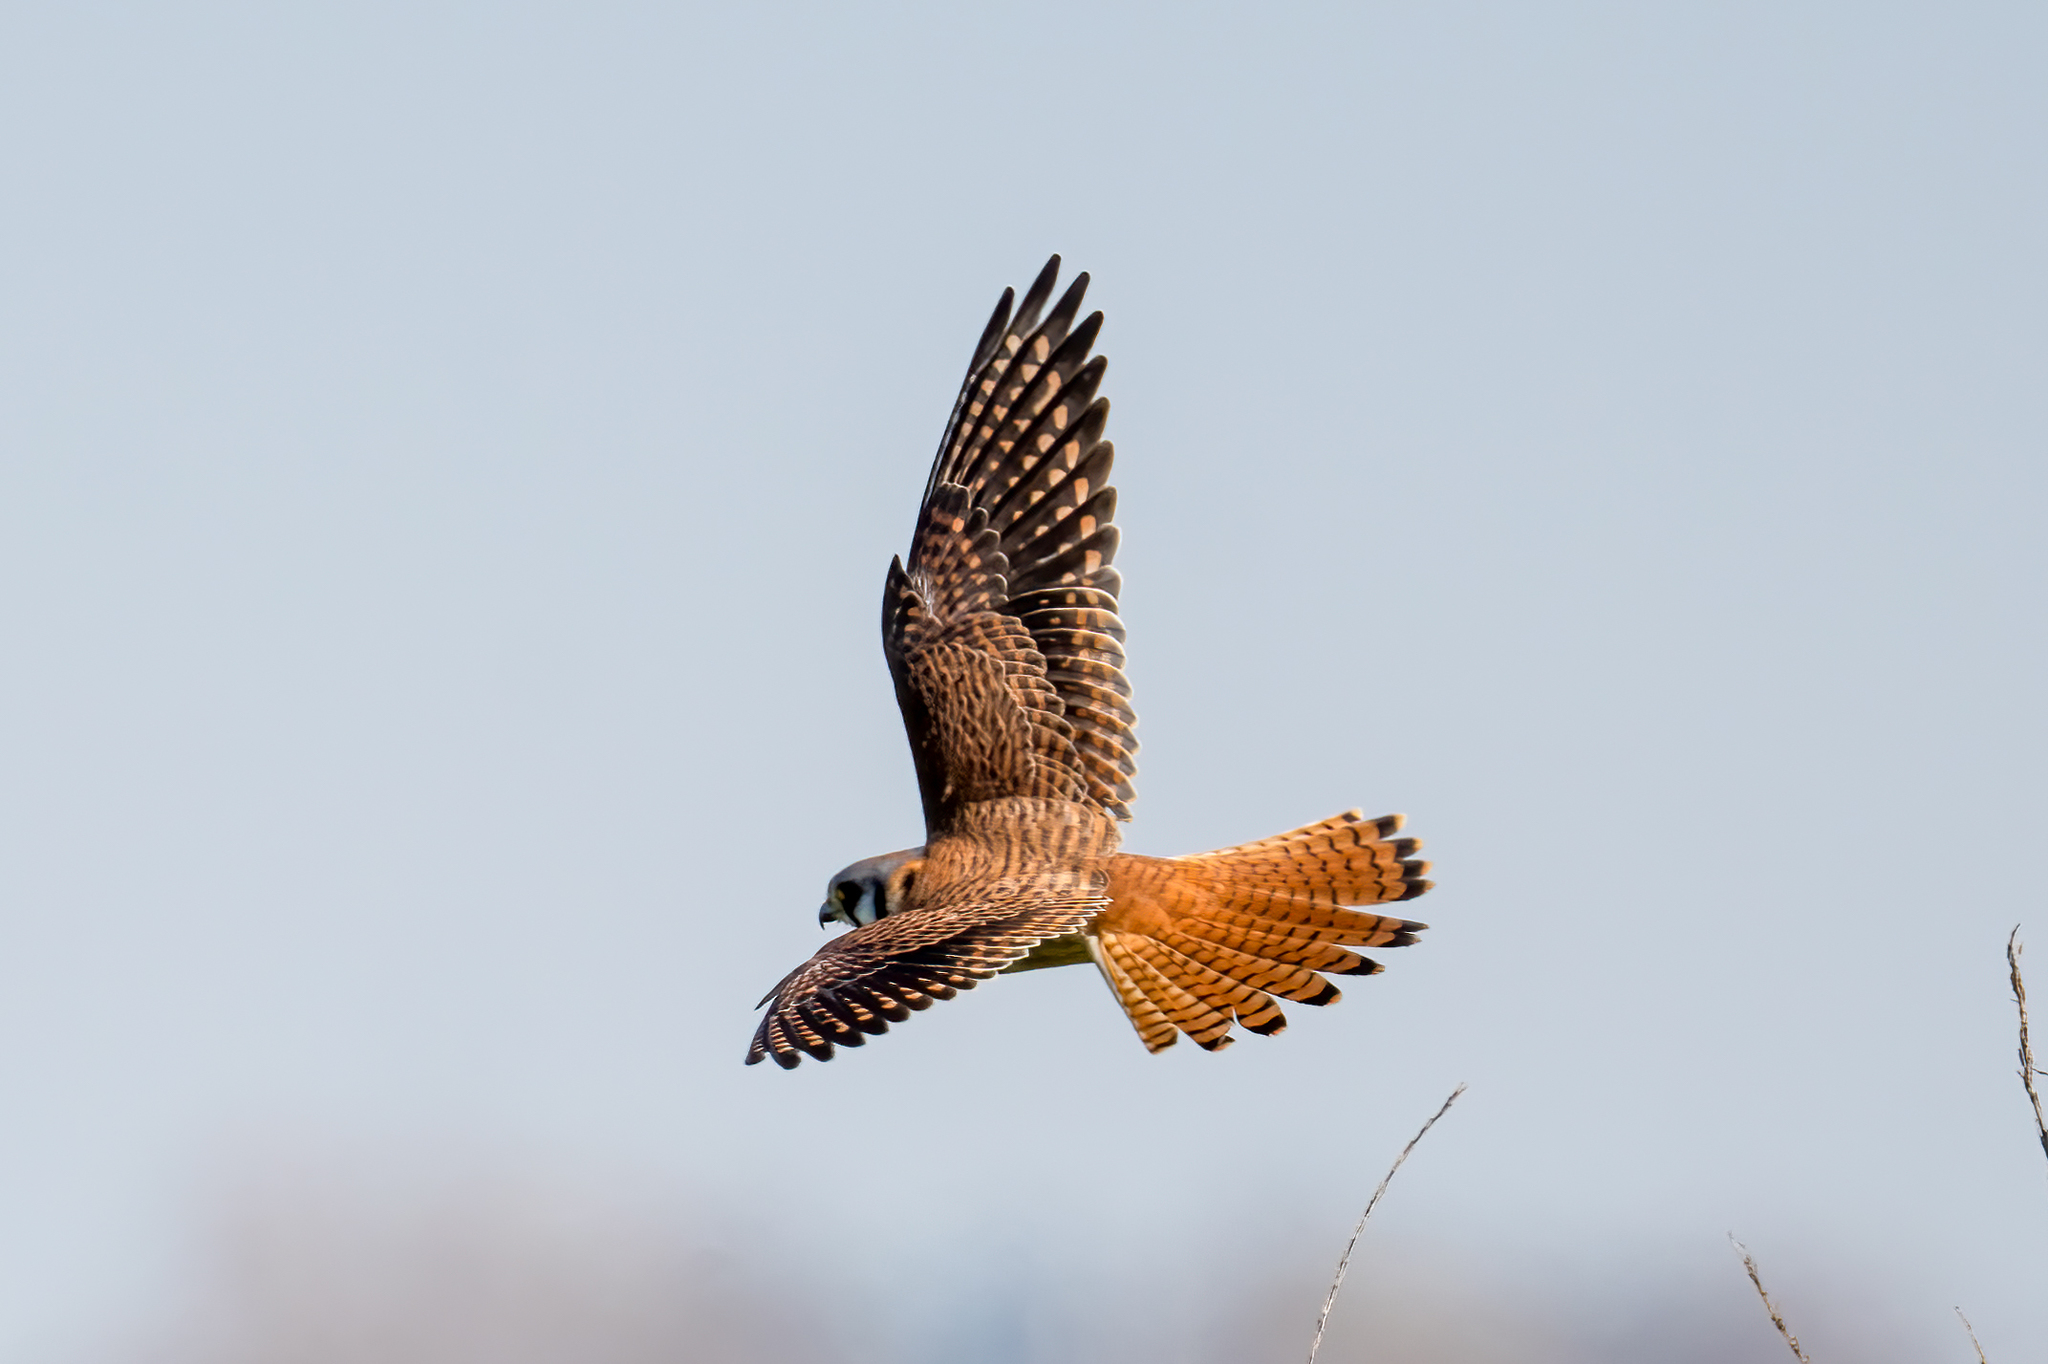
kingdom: Animalia
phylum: Chordata
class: Aves
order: Falconiformes
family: Falconidae
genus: Falco
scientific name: Falco sparverius
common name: American kestrel
